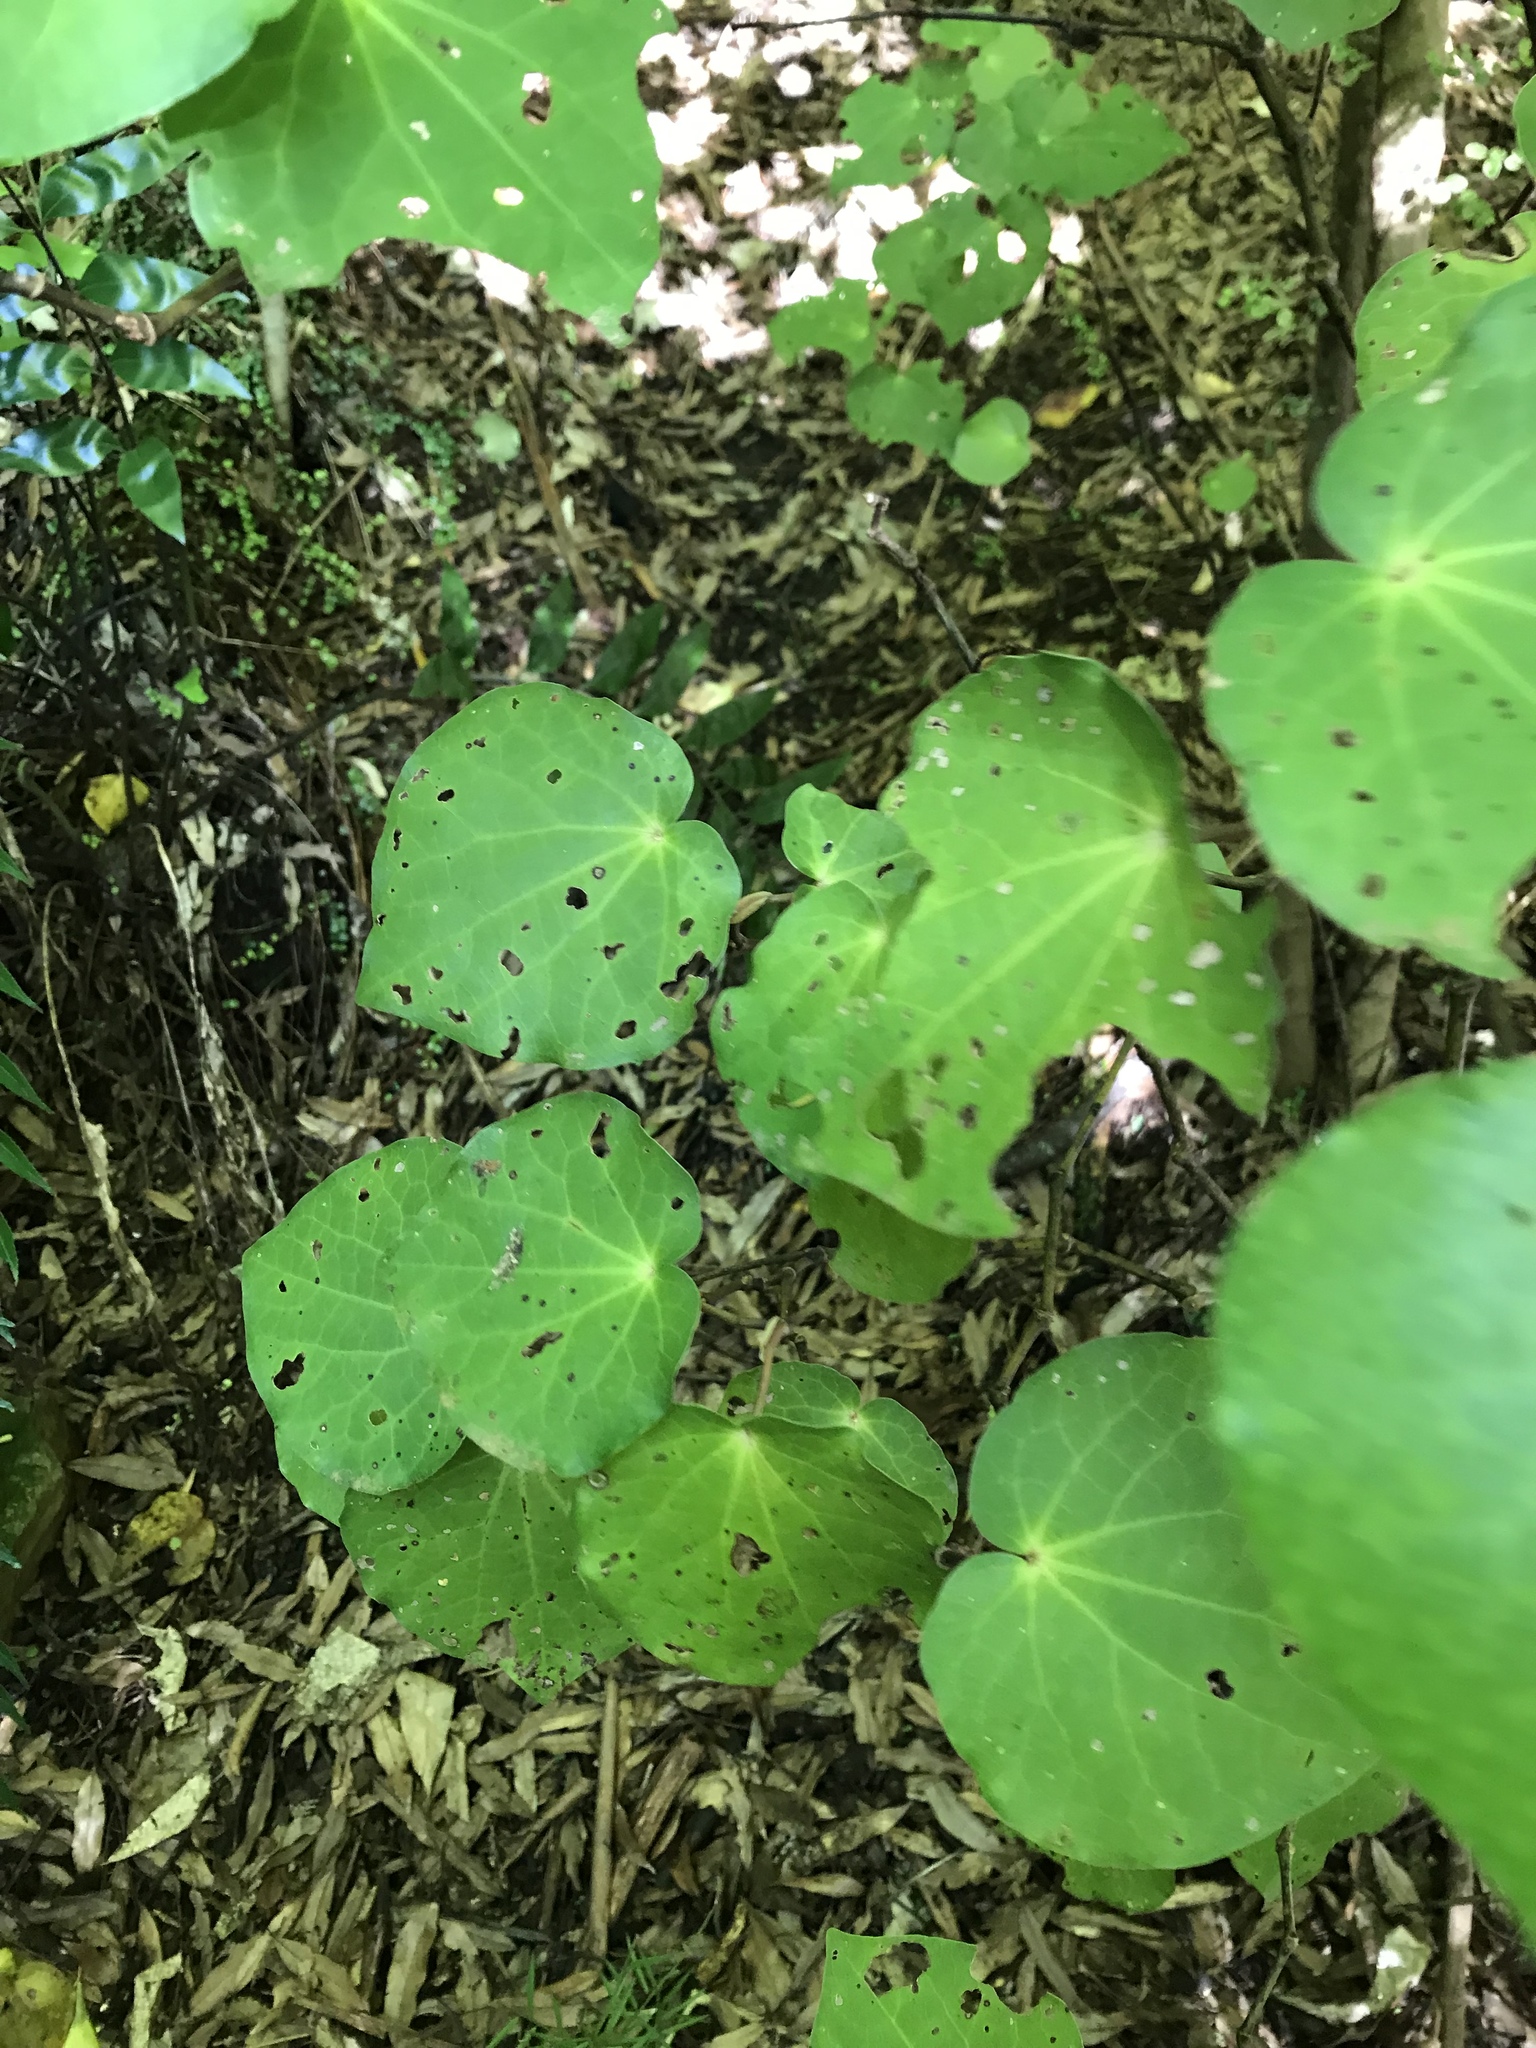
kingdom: Plantae
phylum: Tracheophyta
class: Magnoliopsida
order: Piperales
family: Piperaceae
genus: Macropiper
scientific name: Macropiper excelsum
